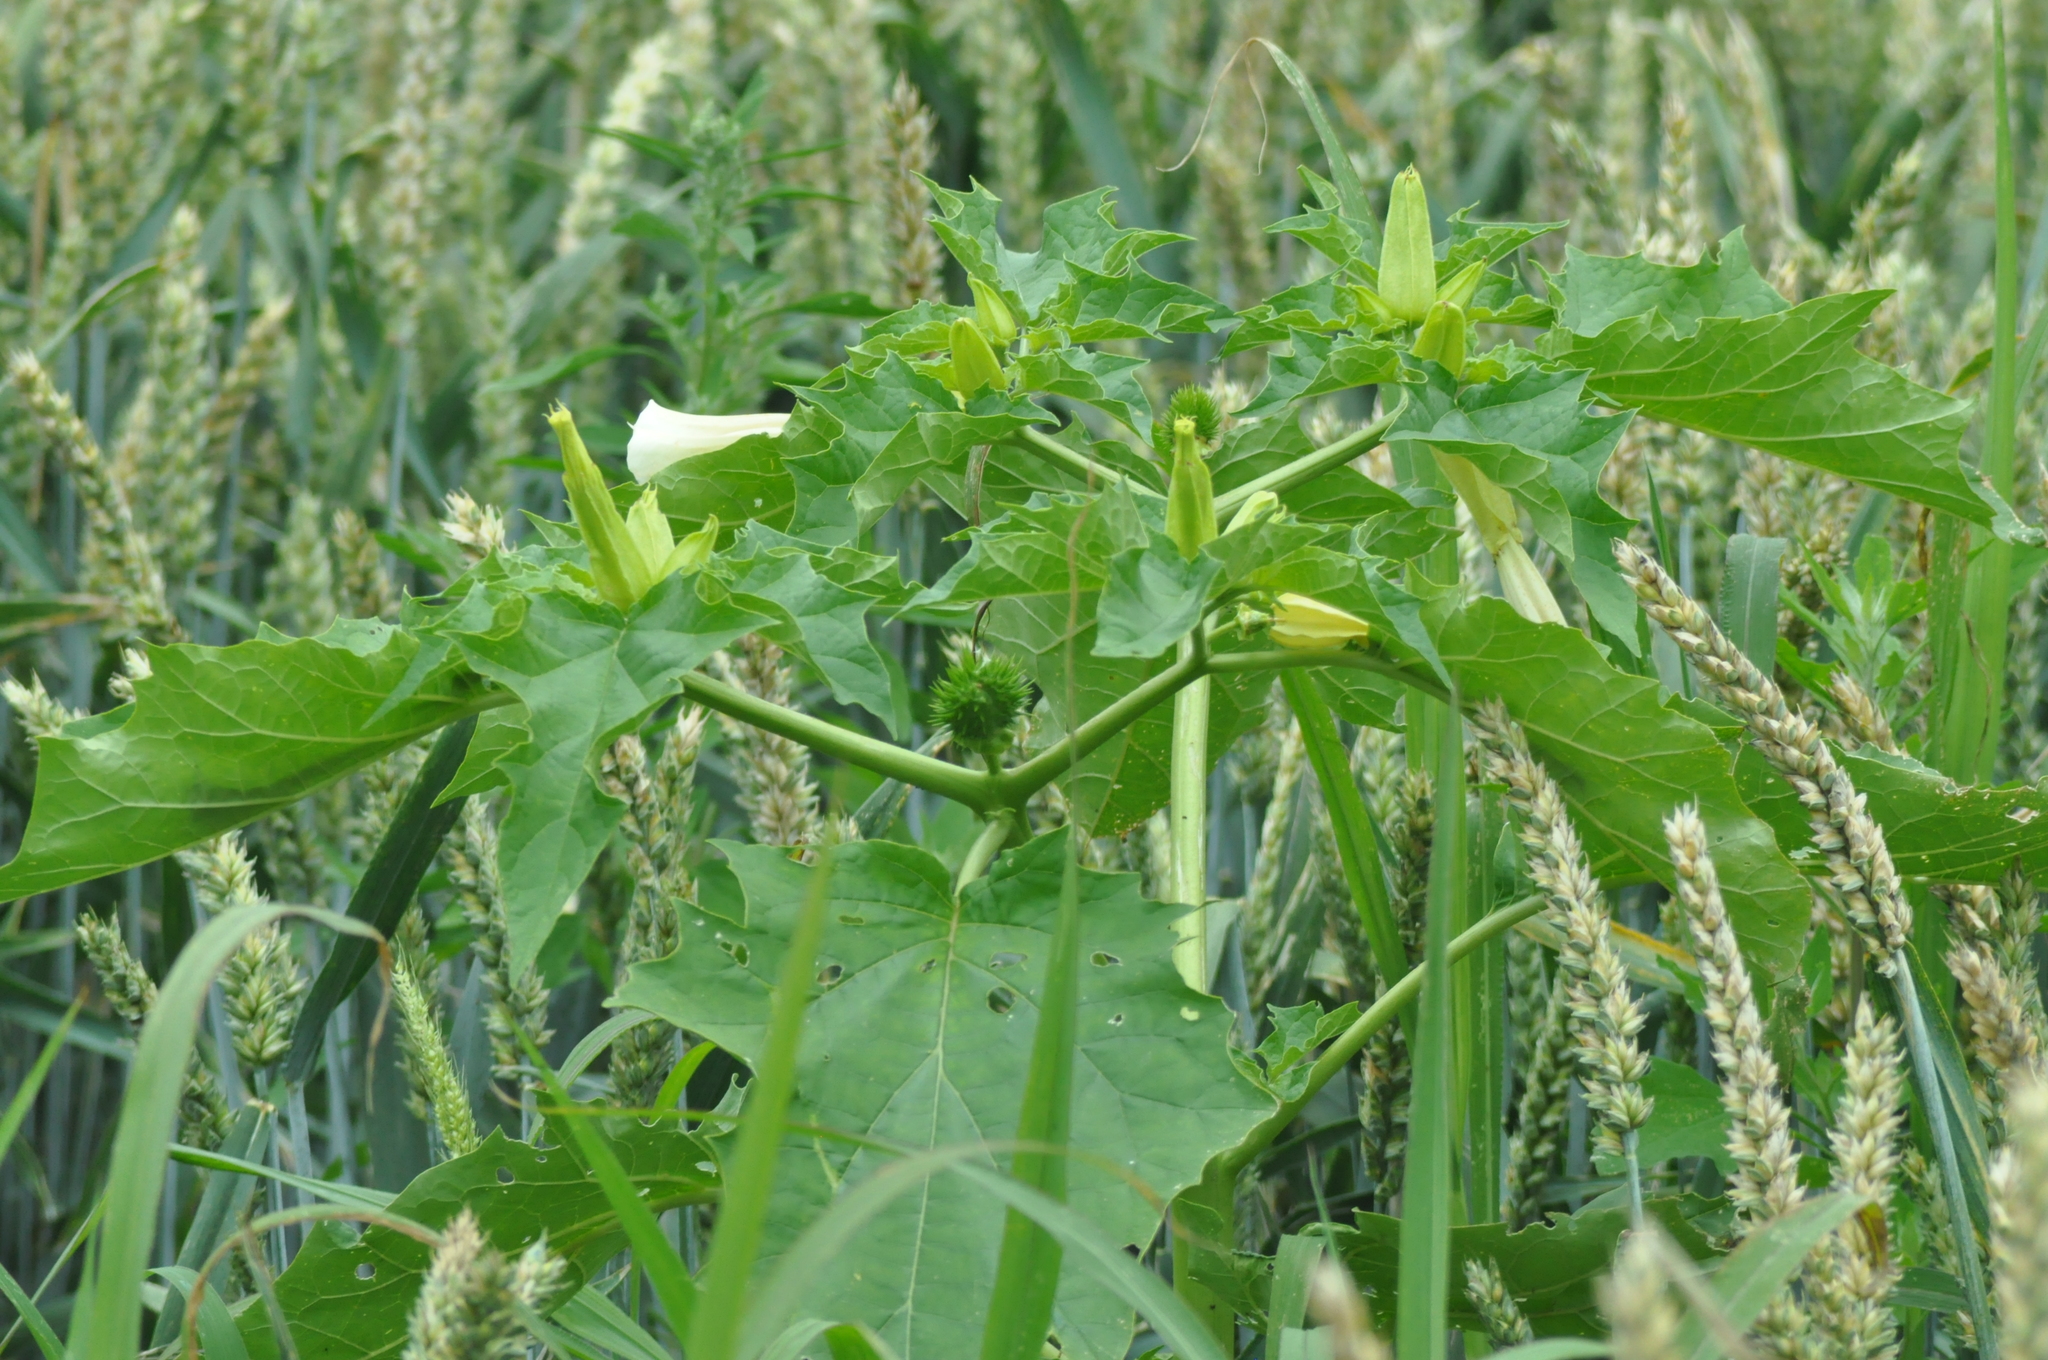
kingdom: Plantae
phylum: Tracheophyta
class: Magnoliopsida
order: Solanales
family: Solanaceae
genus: Datura
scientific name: Datura stramonium
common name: Thorn-apple
